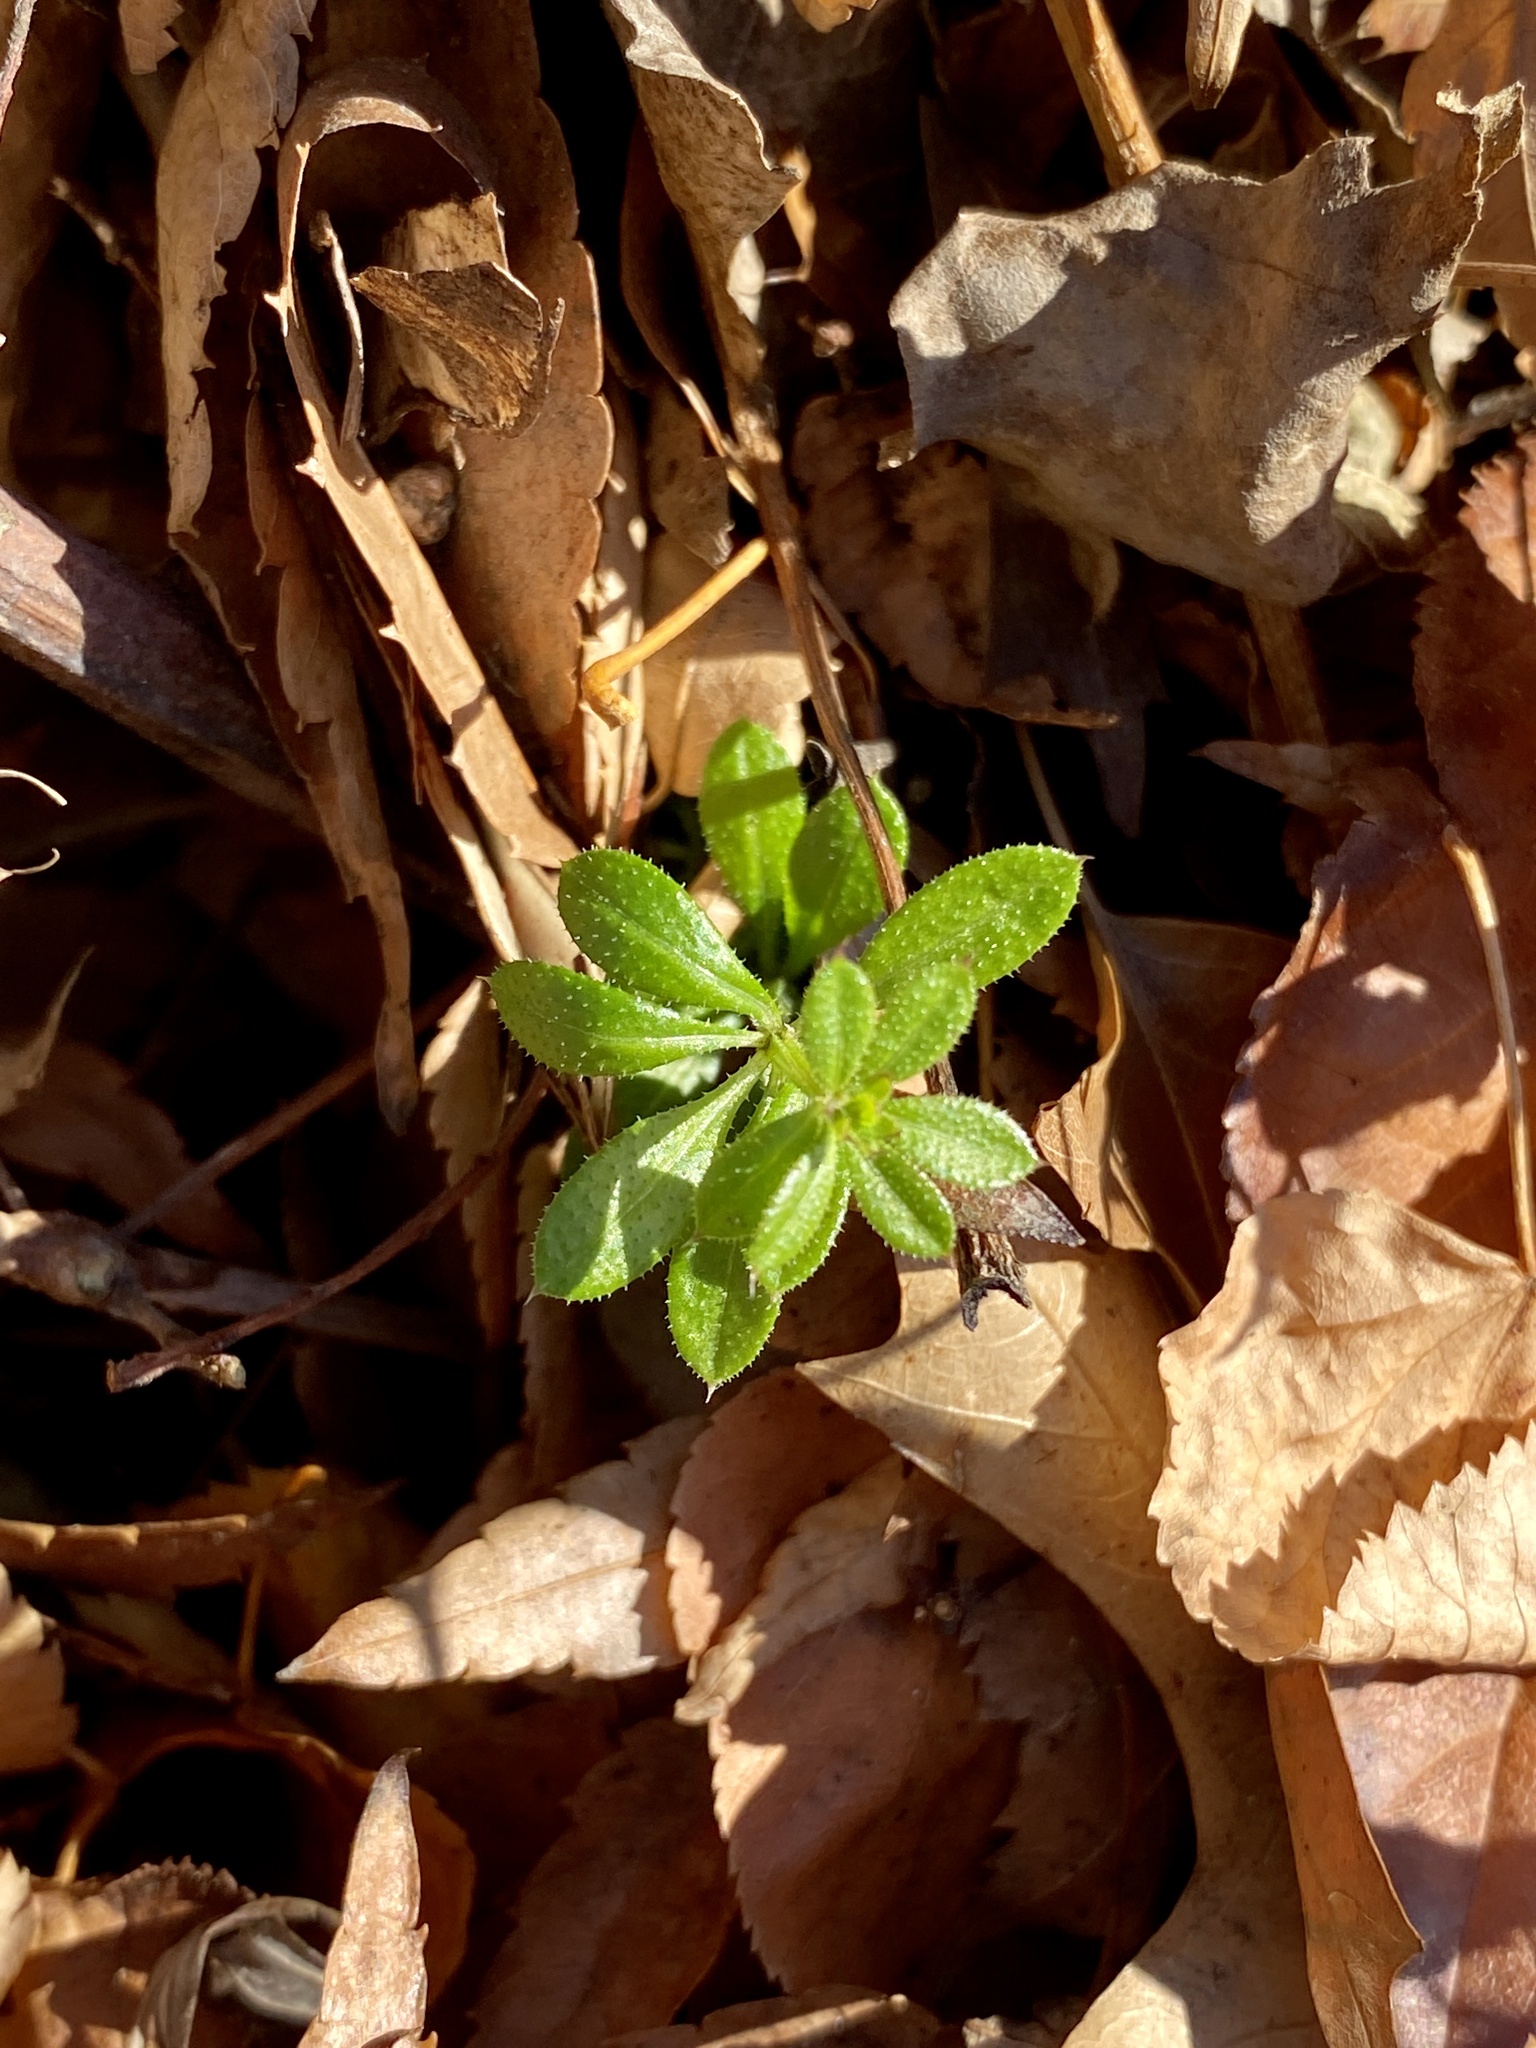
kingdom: Plantae
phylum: Tracheophyta
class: Magnoliopsida
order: Gentianales
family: Rubiaceae
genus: Galium
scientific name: Galium aparine
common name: Cleavers
